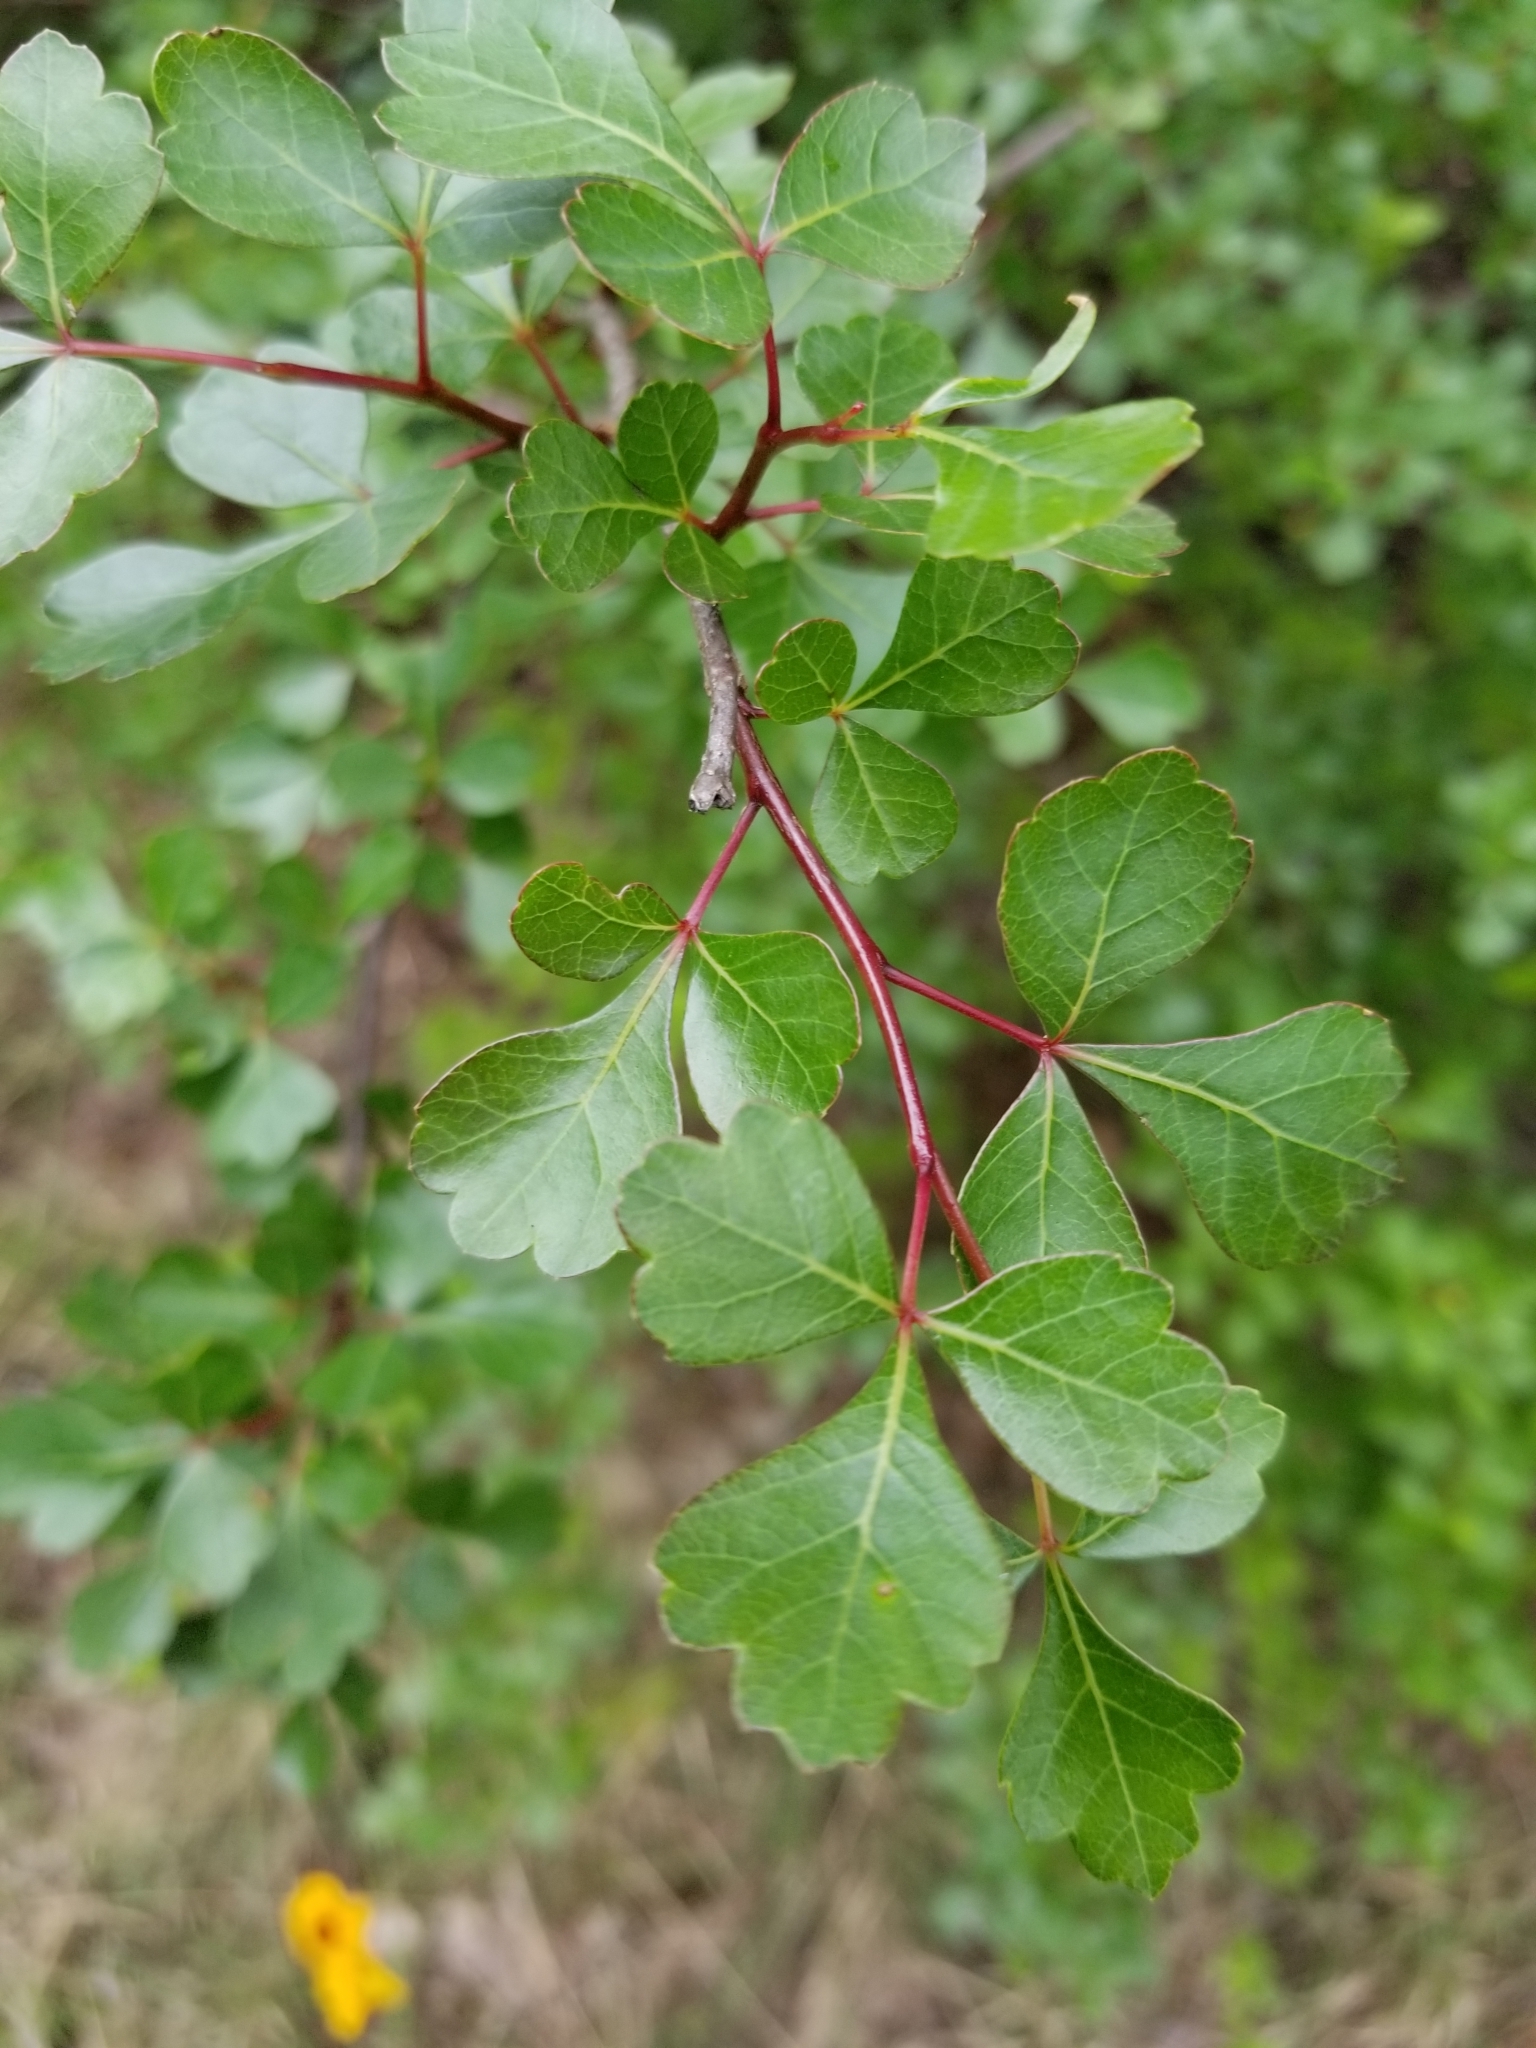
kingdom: Plantae
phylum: Tracheophyta
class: Magnoliopsida
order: Sapindales
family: Anacardiaceae
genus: Rhus
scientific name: Rhus aromatica
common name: Aromatic sumac
